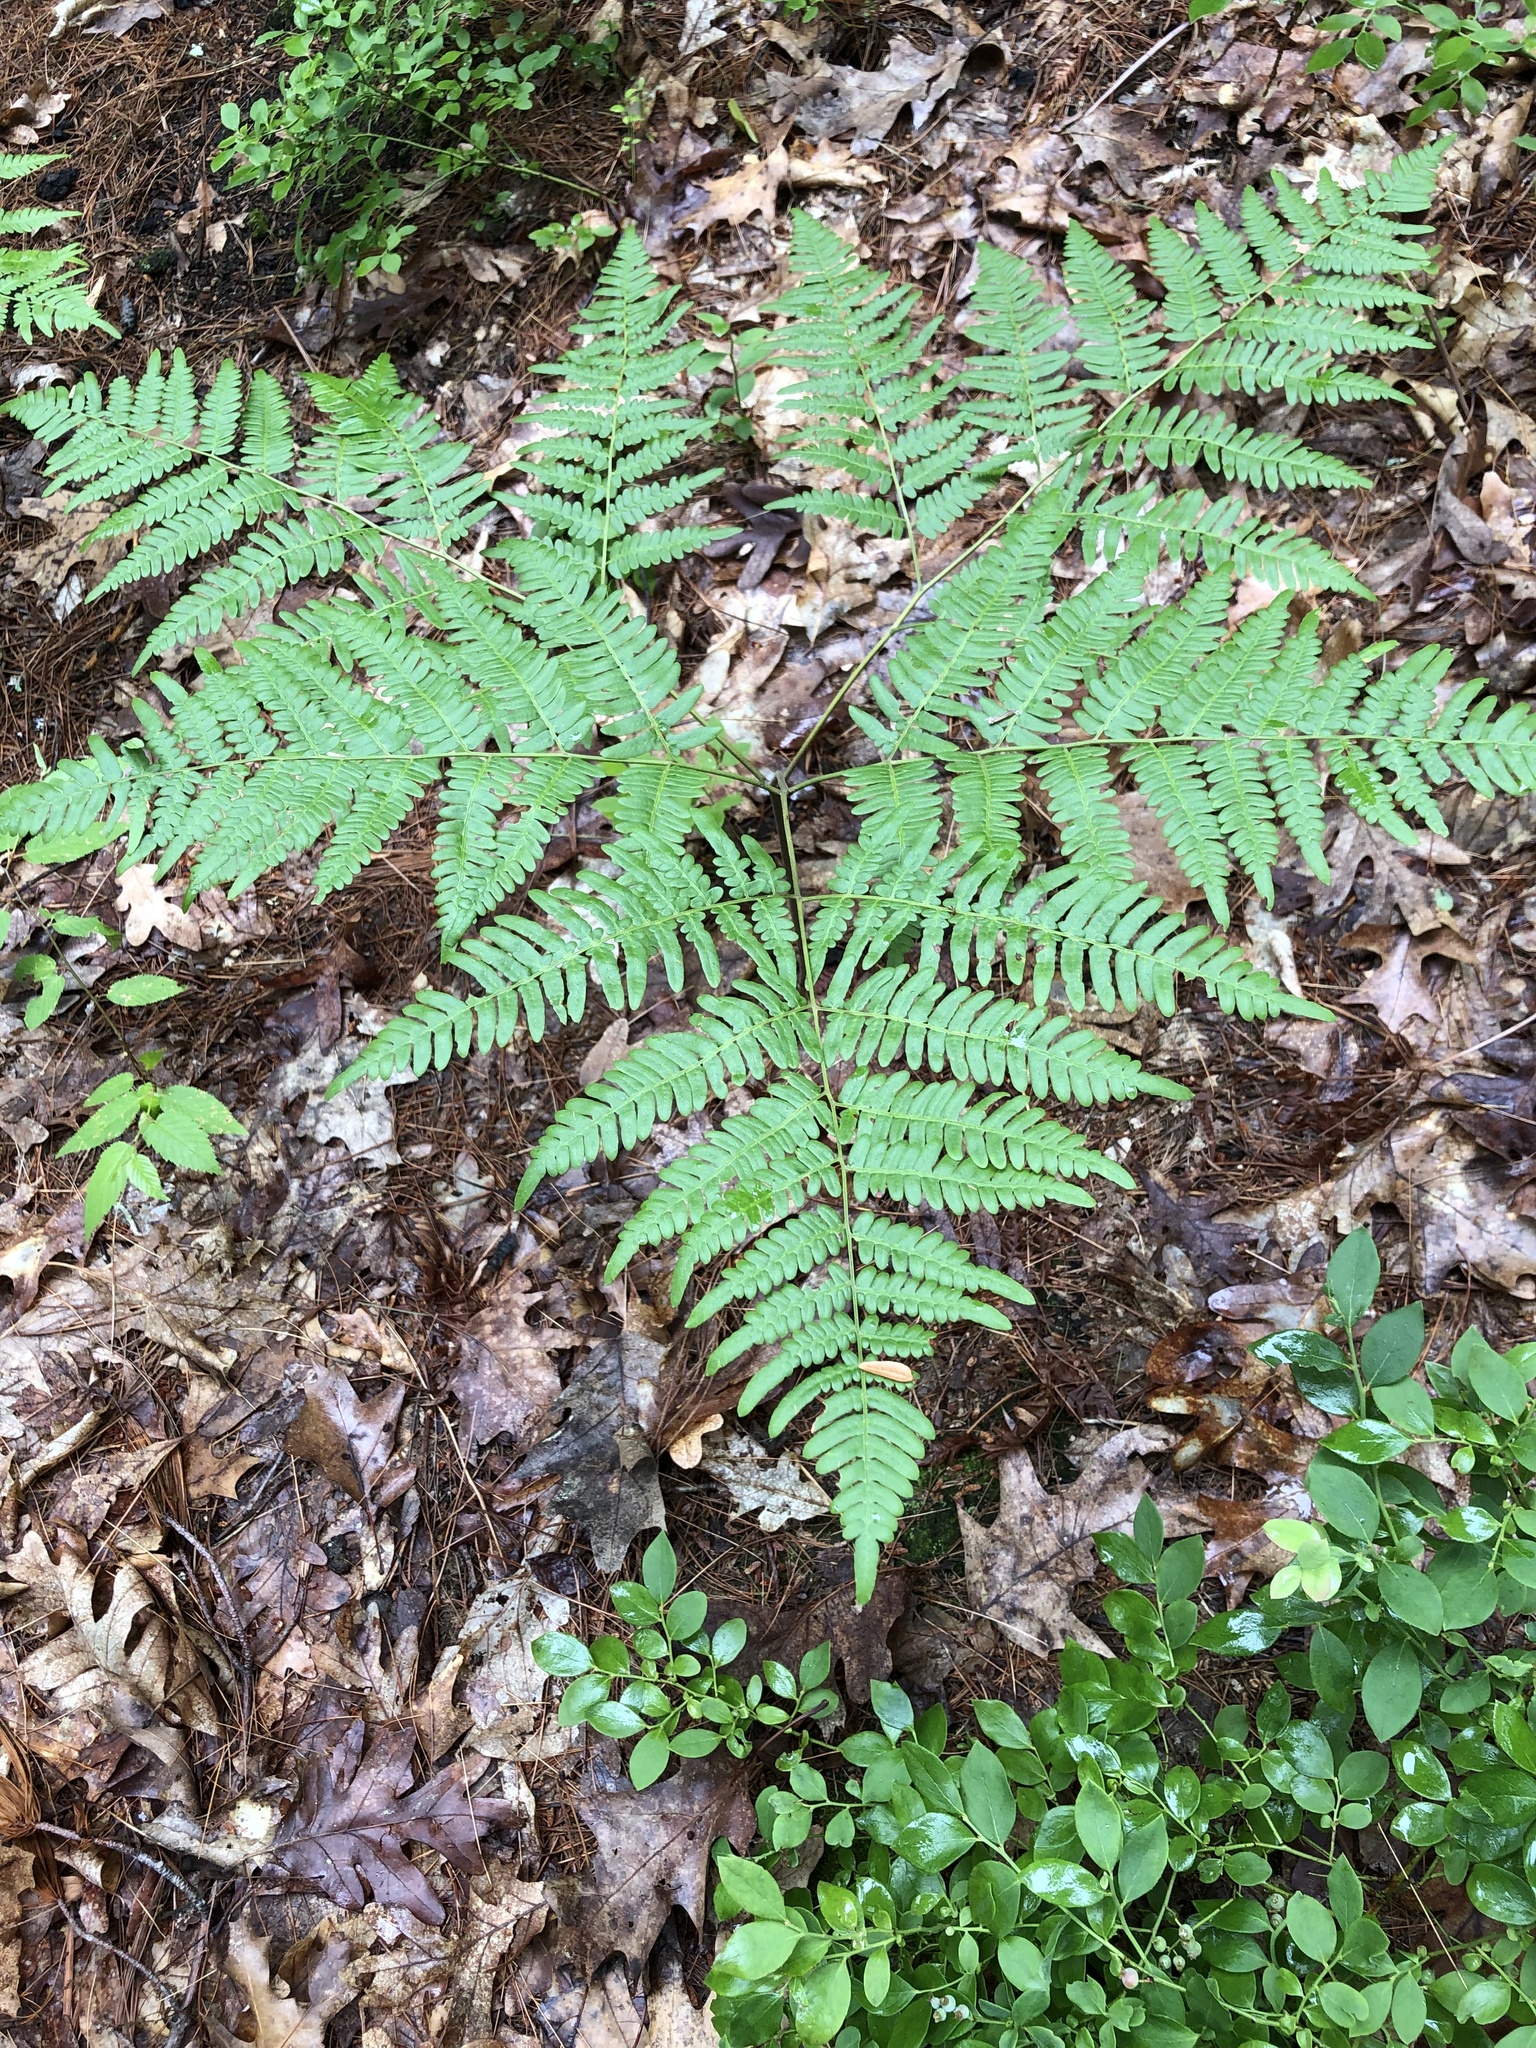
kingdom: Plantae
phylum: Tracheophyta
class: Polypodiopsida
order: Polypodiales
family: Dennstaedtiaceae
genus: Pteridium
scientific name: Pteridium aquilinum
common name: Bracken
